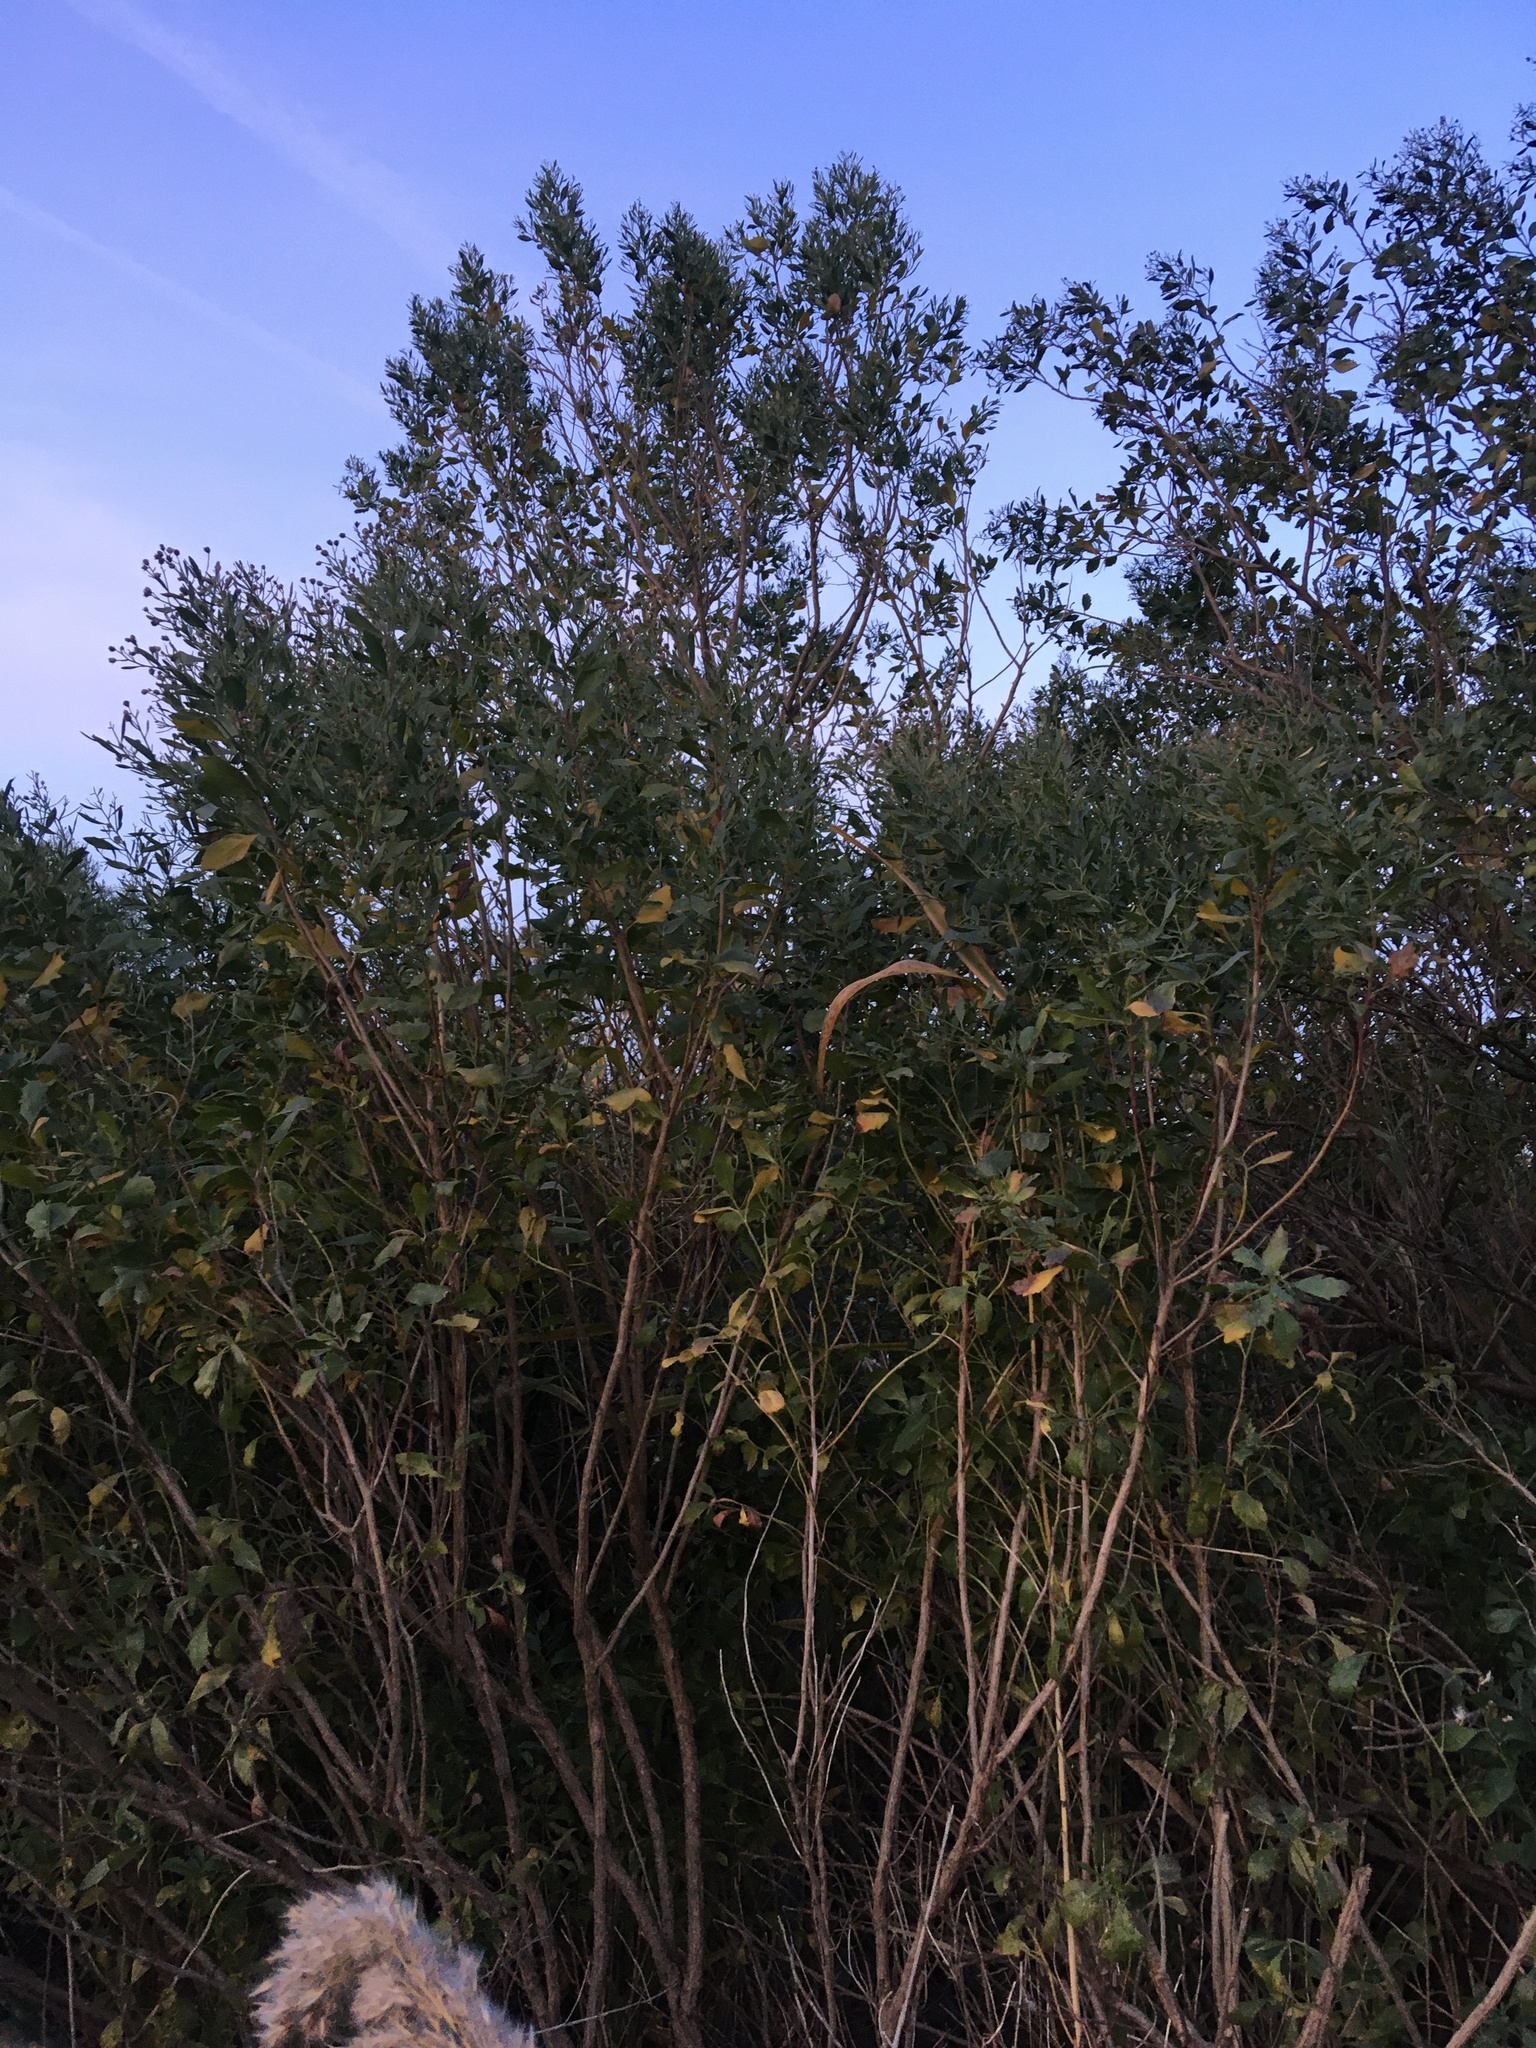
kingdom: Plantae
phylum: Tracheophyta
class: Magnoliopsida
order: Asterales
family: Asteraceae
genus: Baccharis
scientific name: Baccharis halimifolia
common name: Eastern baccharis
